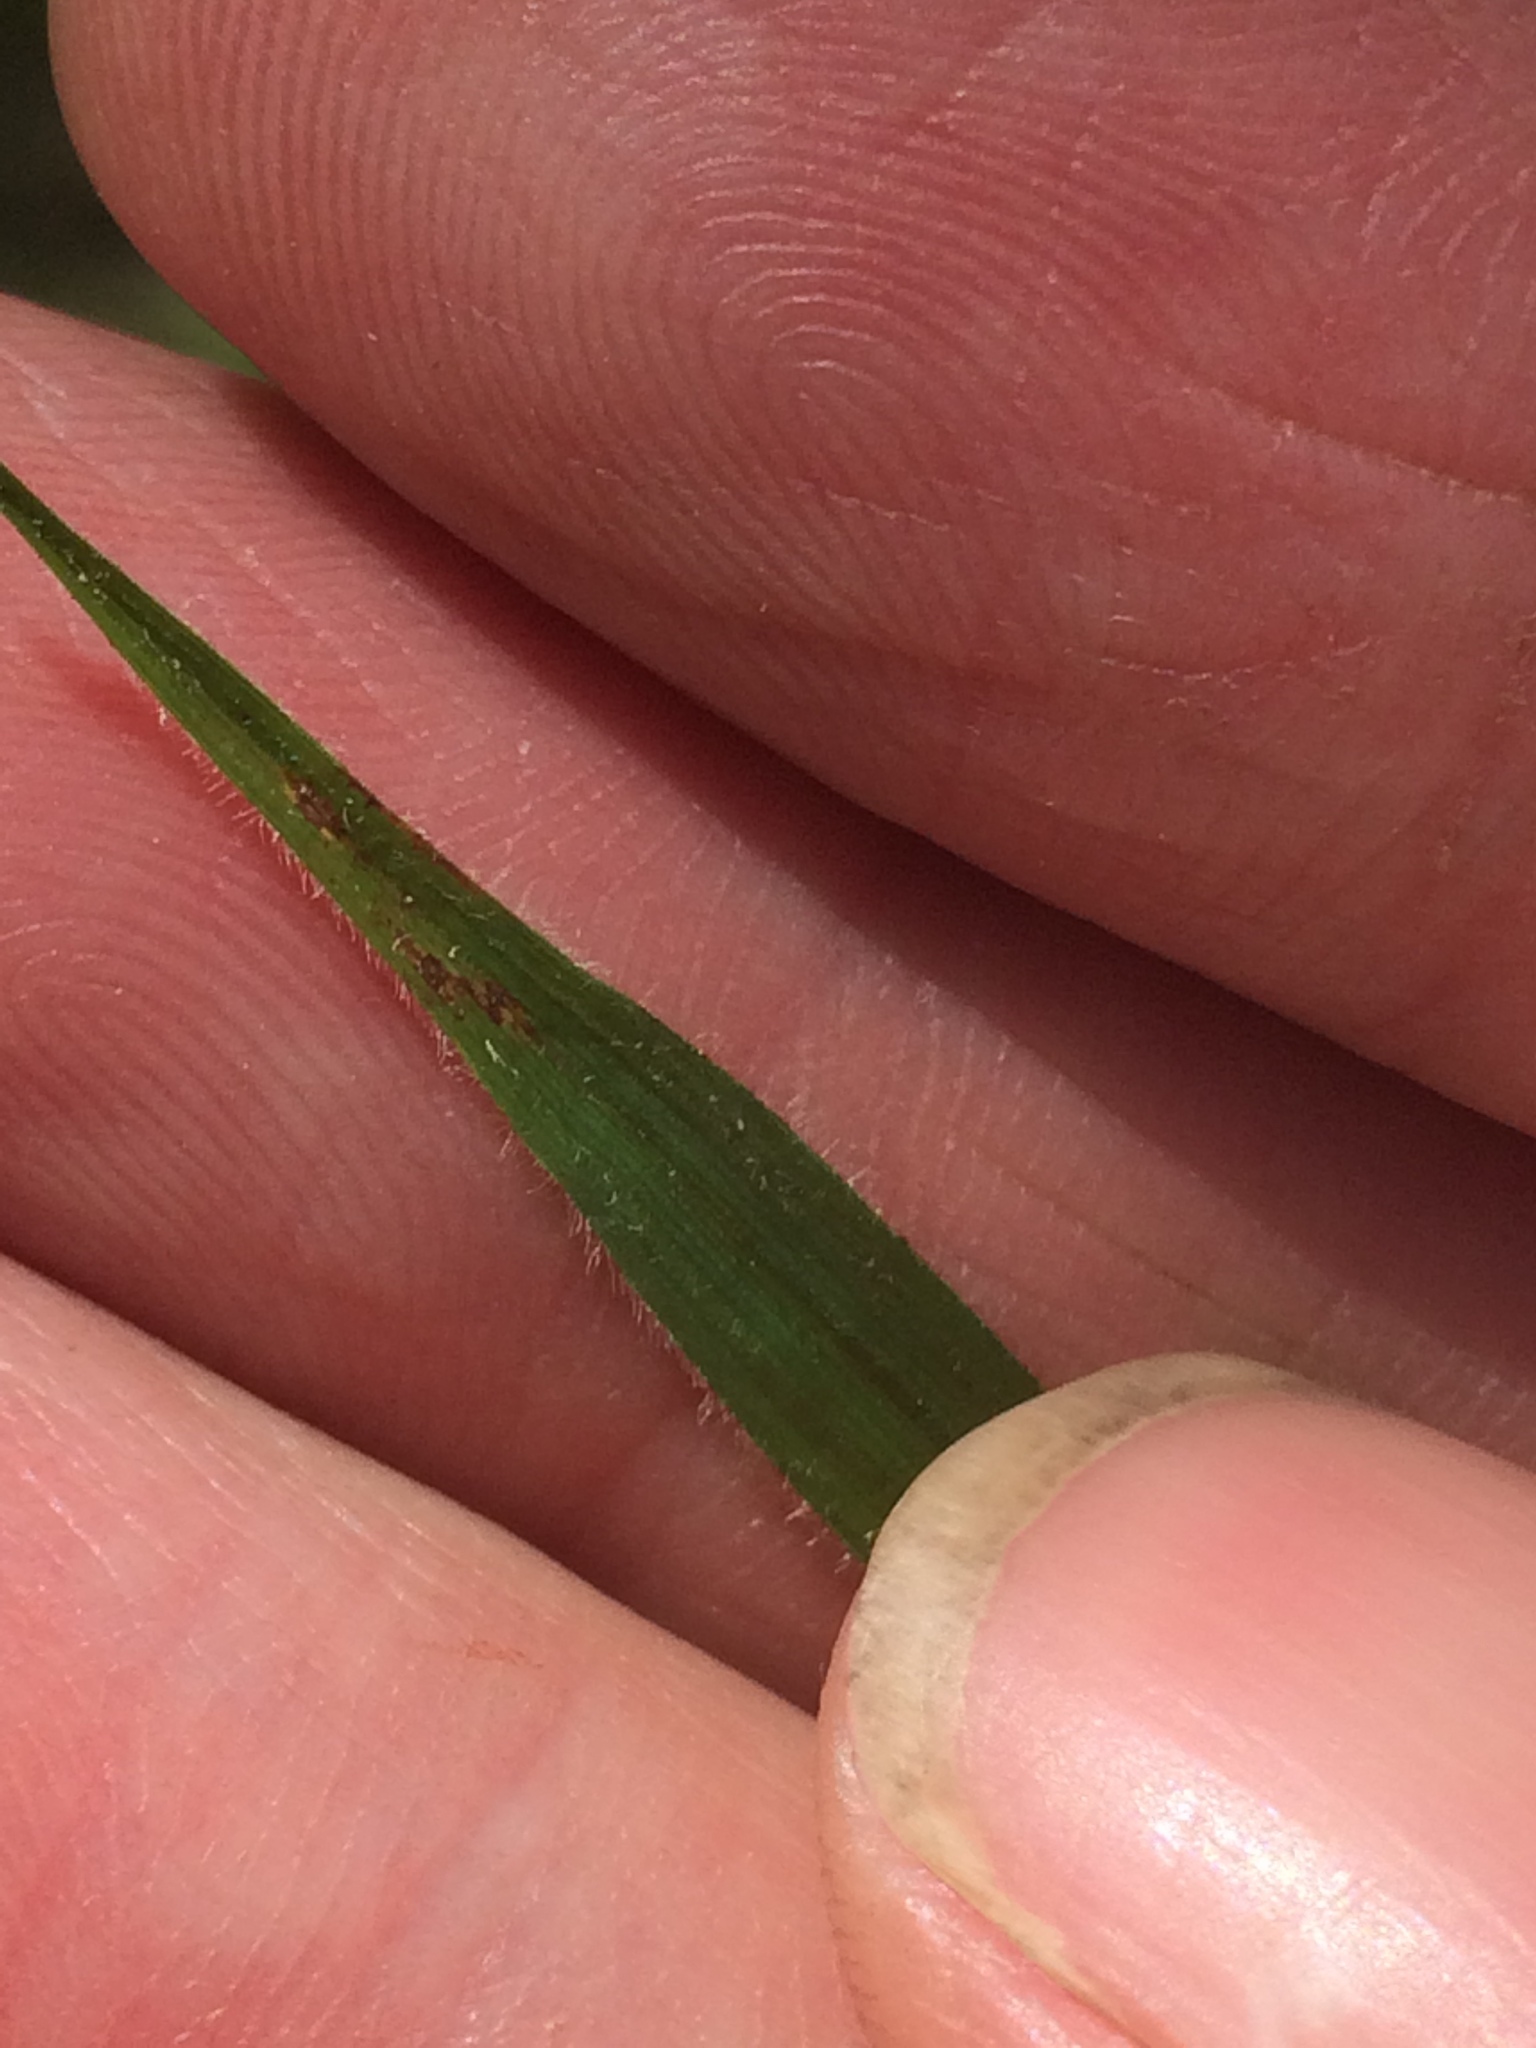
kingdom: Plantae
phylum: Tracheophyta
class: Liliopsida
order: Poales
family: Cyperaceae
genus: Carex
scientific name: Carex castanea
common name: Chestnut sedge
